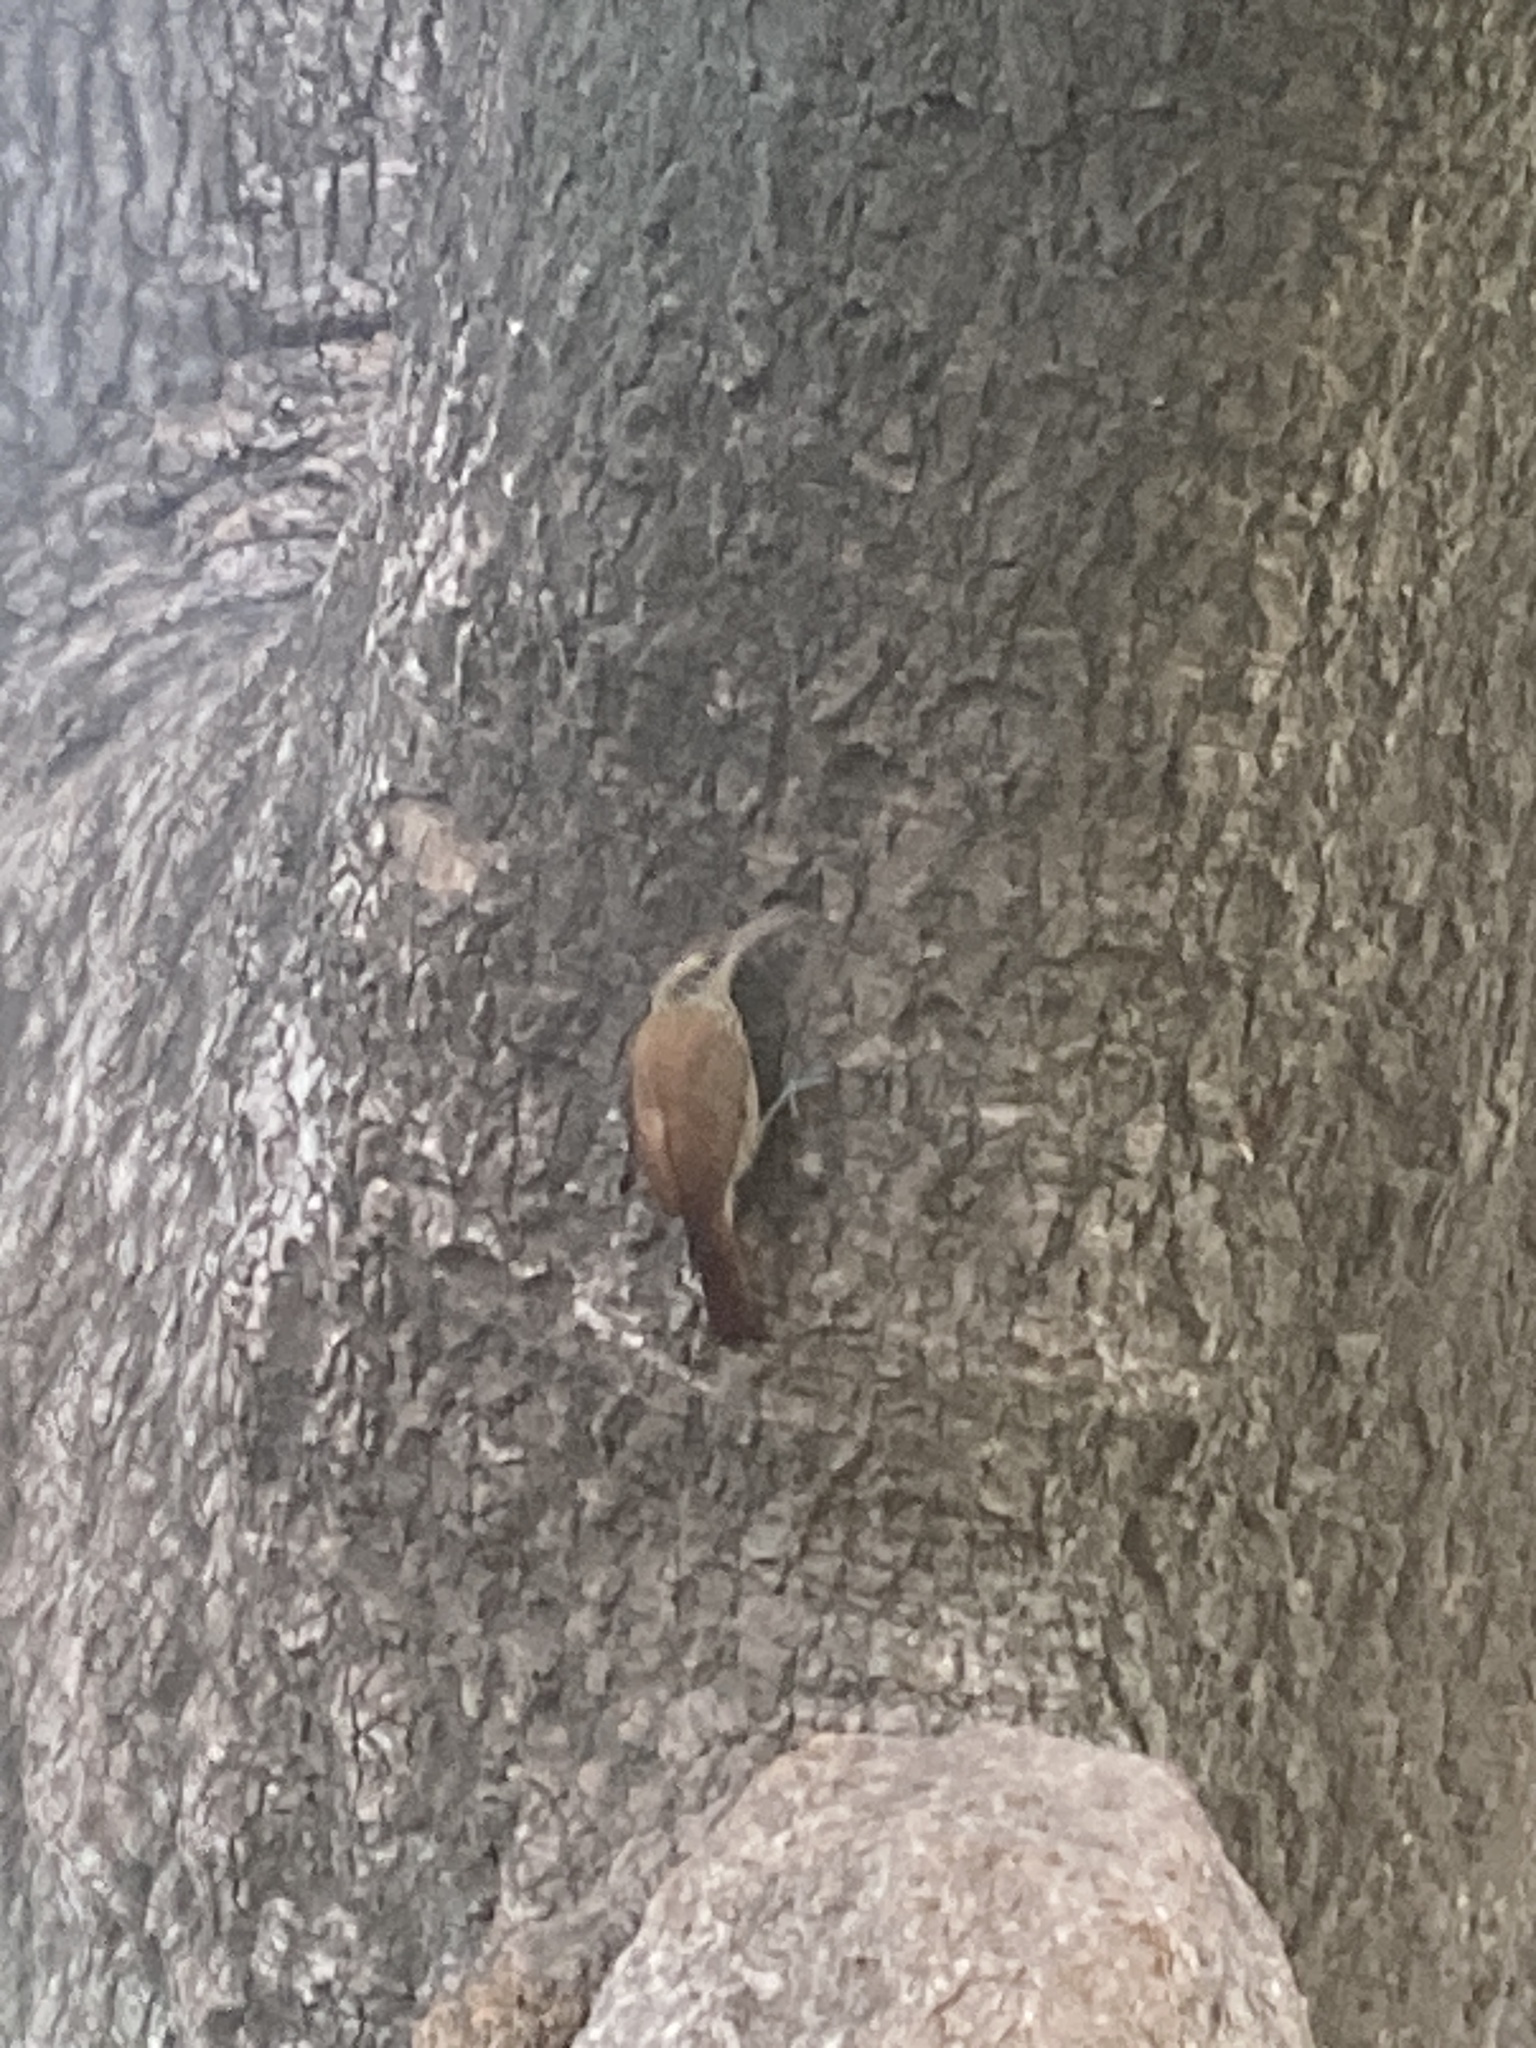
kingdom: Animalia
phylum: Chordata
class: Aves
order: Passeriformes
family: Furnariidae
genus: Lepidocolaptes
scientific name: Lepidocolaptes angustirostris
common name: Narrow-billed woodcreeper
